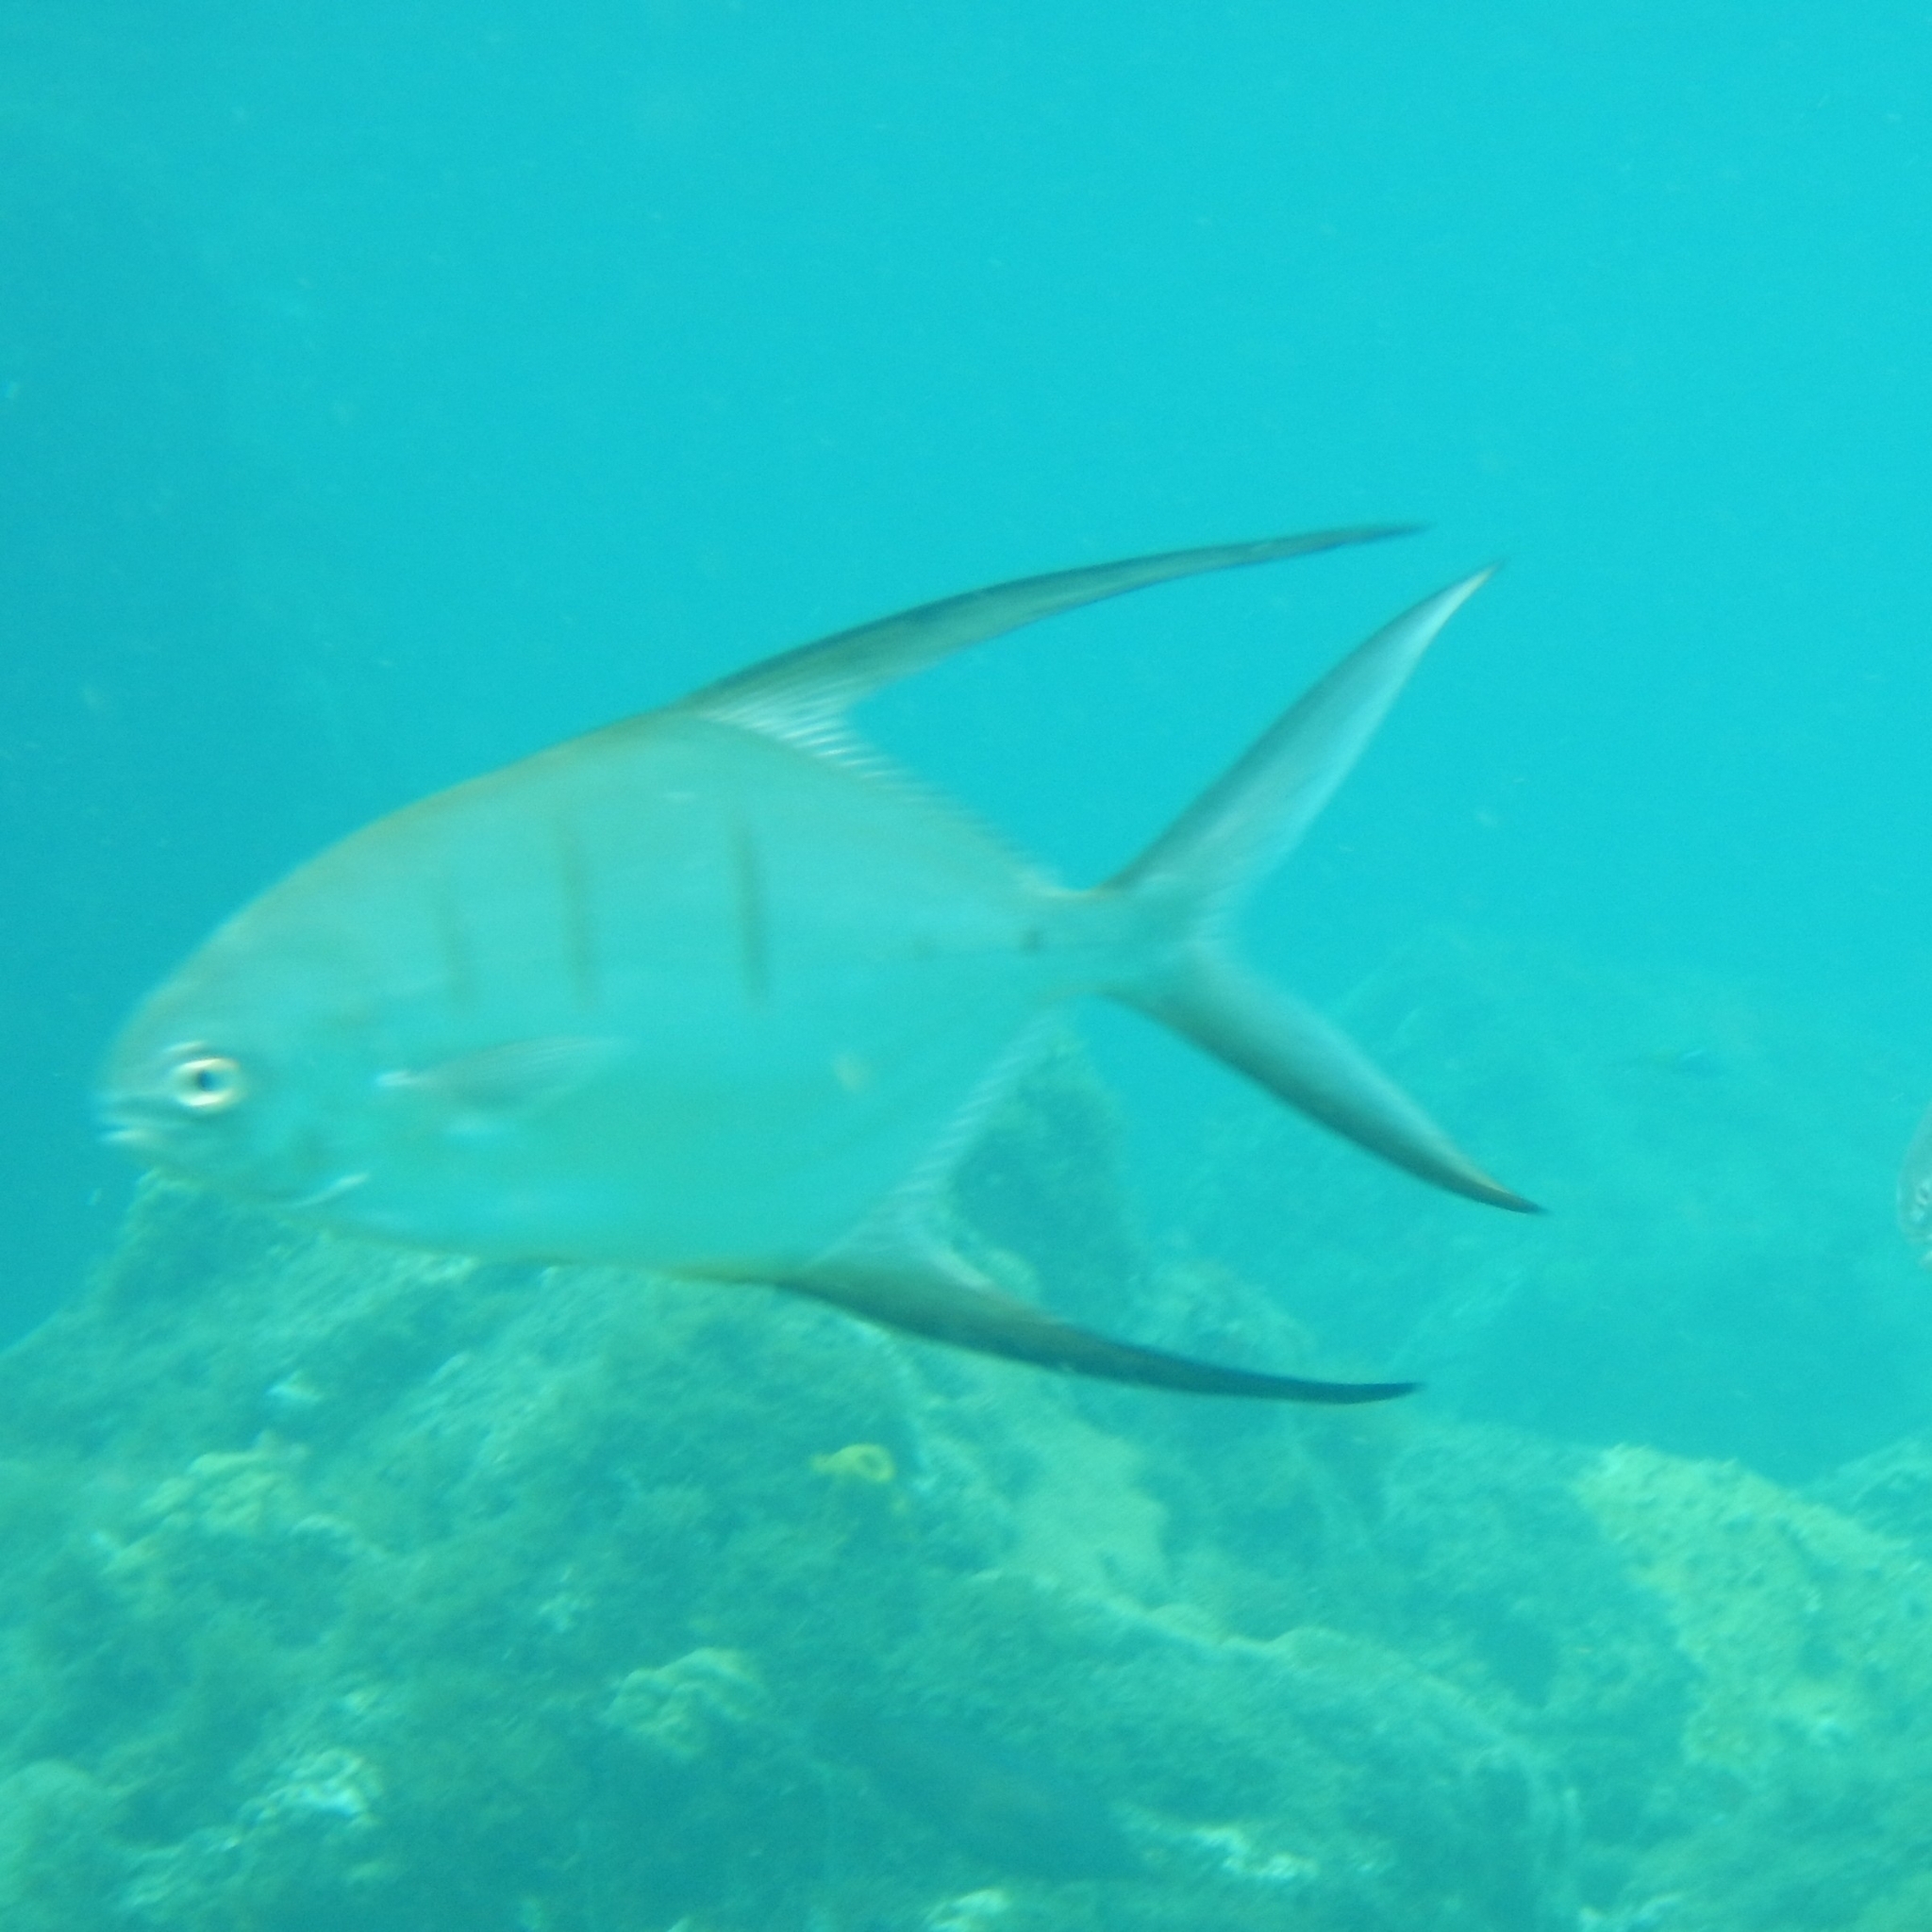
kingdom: Animalia
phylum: Chordata
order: Perciformes
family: Carangidae
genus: Trachinotus
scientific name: Trachinotus goodei
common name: Palometa
